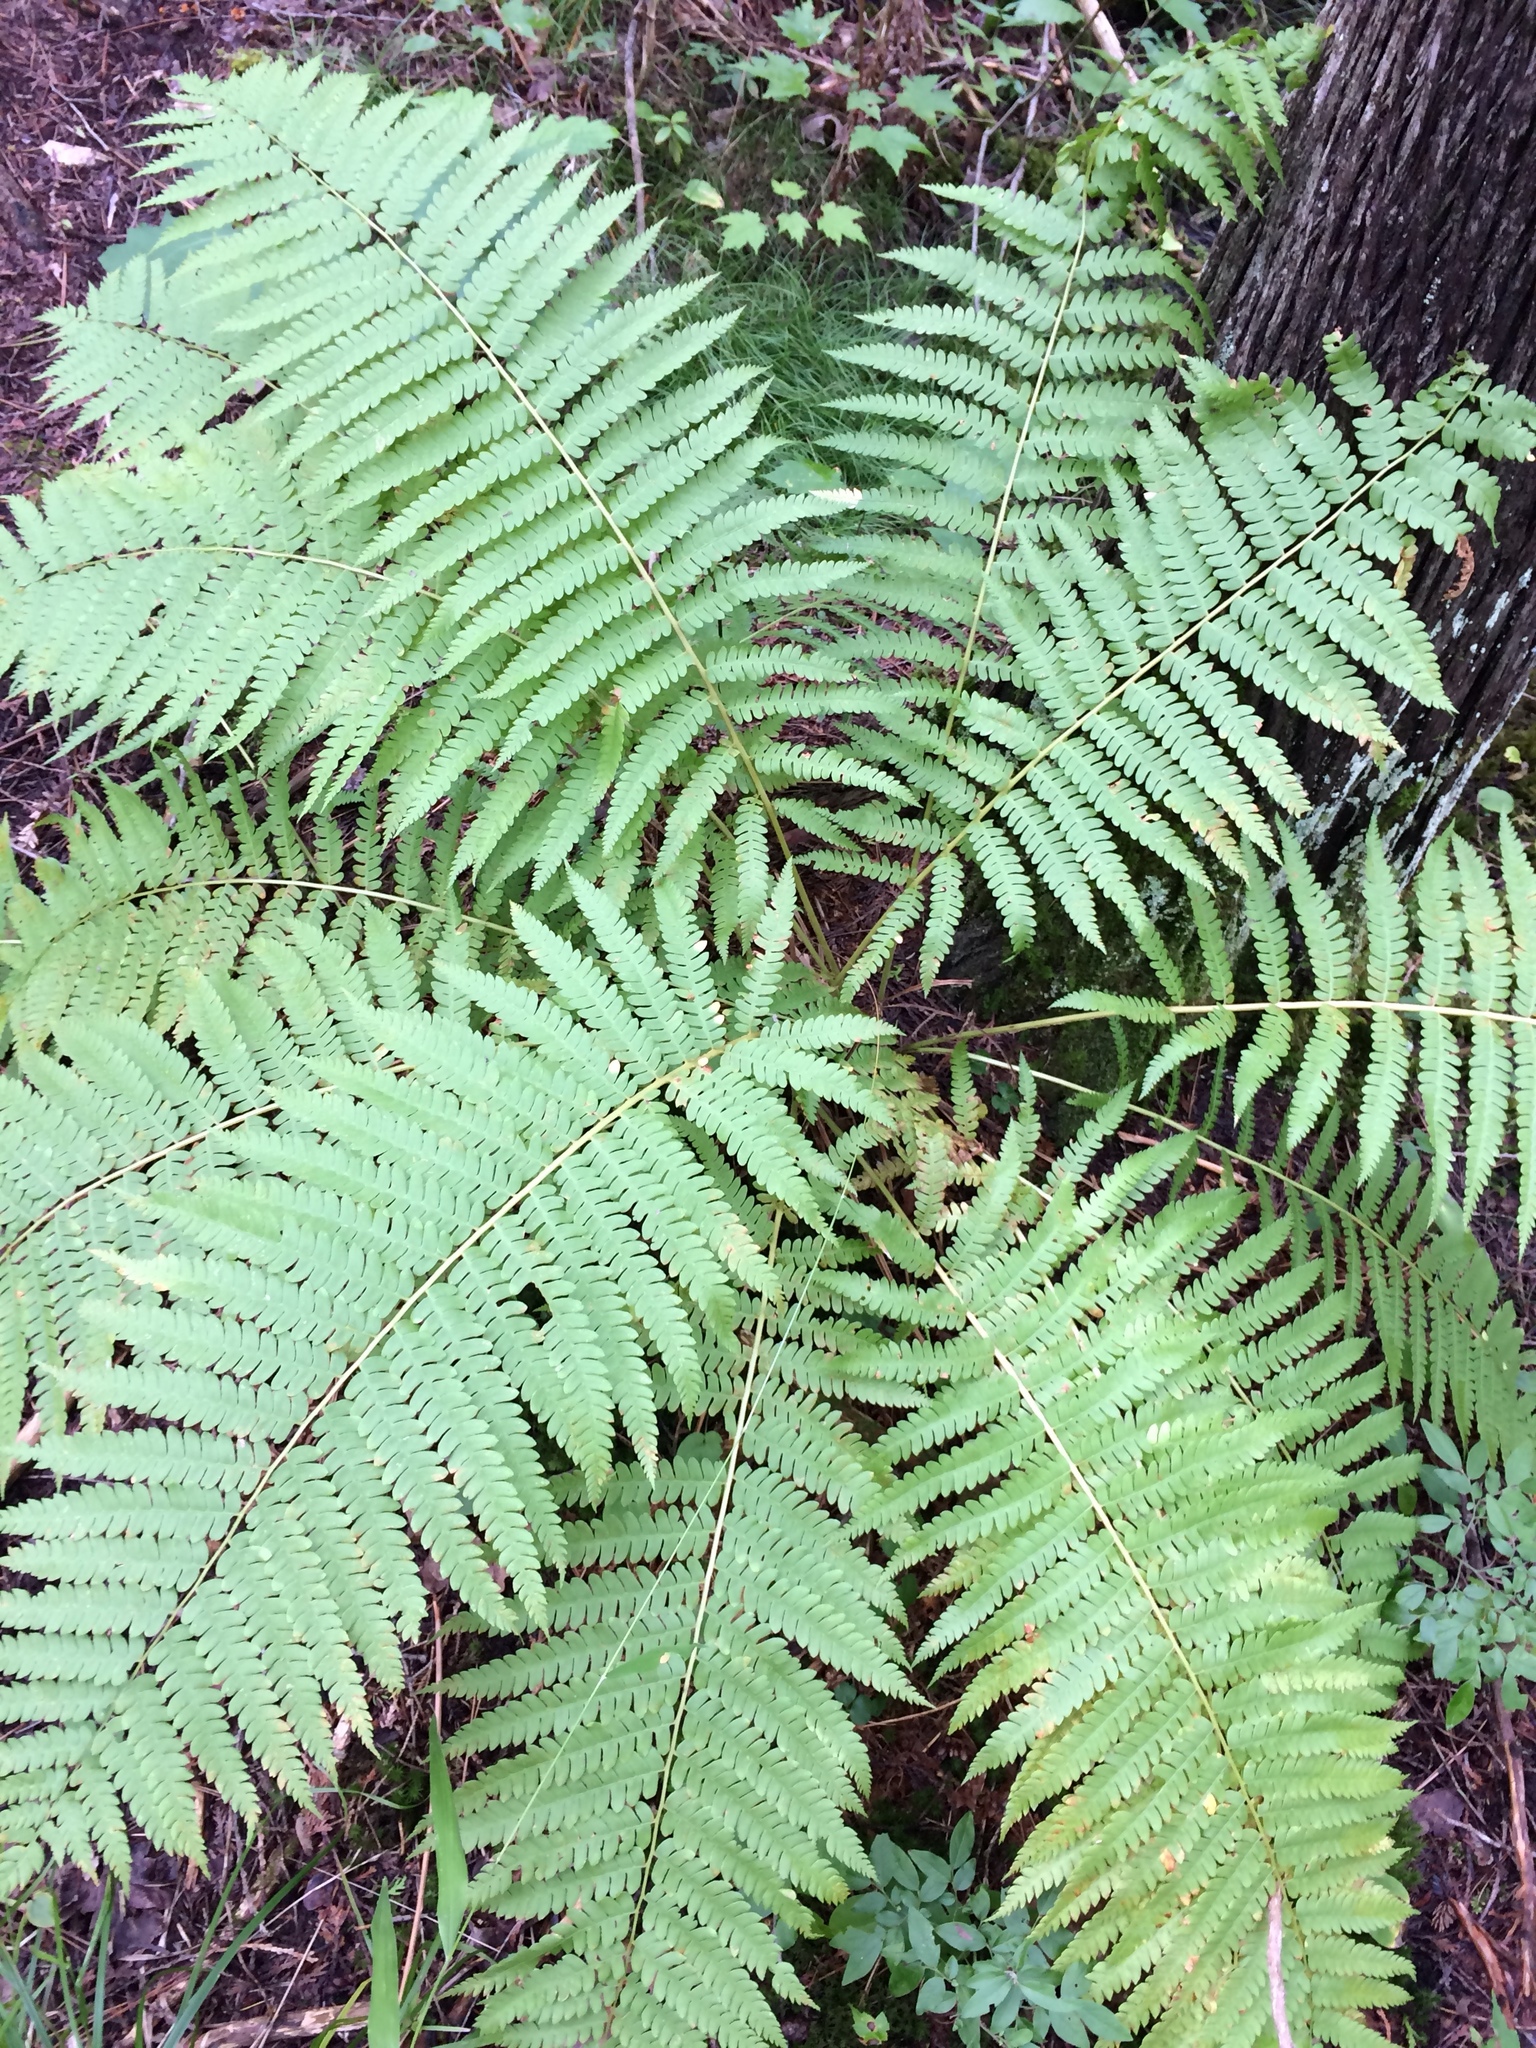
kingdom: Plantae
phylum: Tracheophyta
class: Polypodiopsida
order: Osmundales
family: Osmundaceae
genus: Osmundastrum
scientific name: Osmundastrum cinnamomeum
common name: Cinnamon fern
